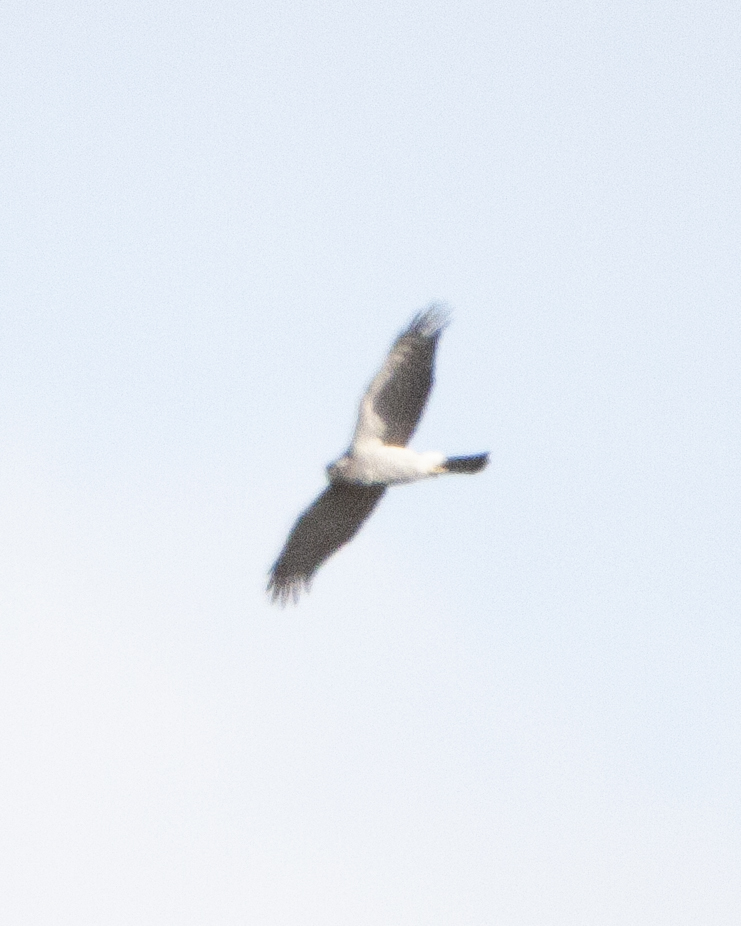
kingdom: Animalia
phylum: Chordata
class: Aves
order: Accipitriformes
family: Accipitridae
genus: Accipiter
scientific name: Accipiter nisus
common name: Eurasian sparrowhawk
